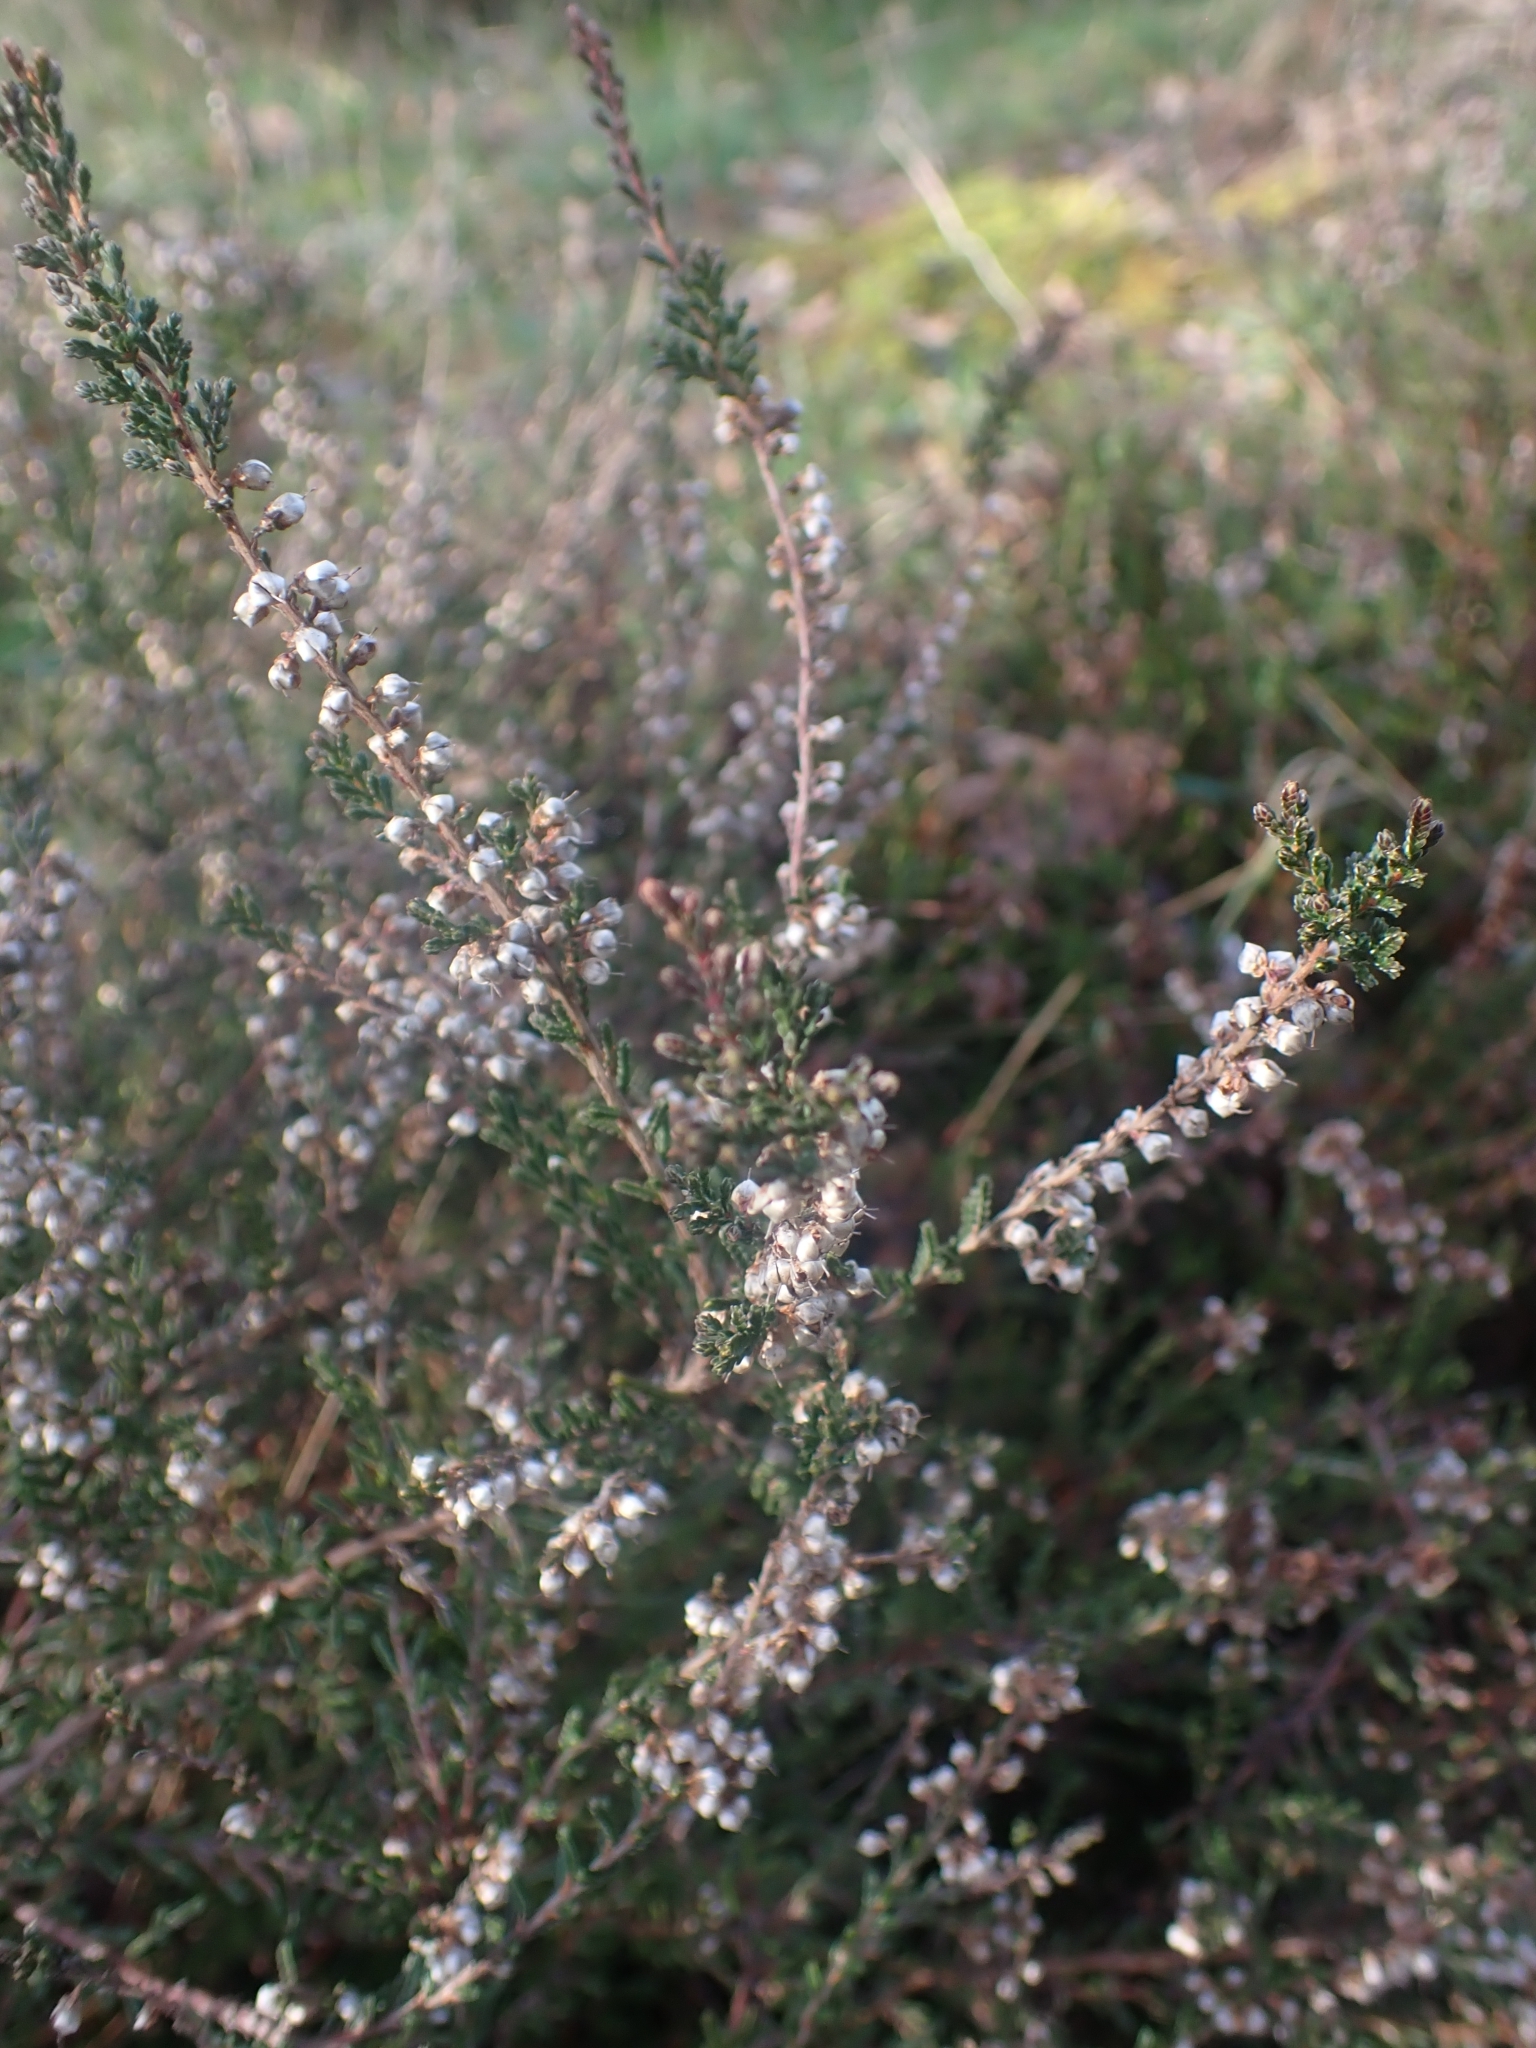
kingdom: Plantae
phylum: Tracheophyta
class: Magnoliopsida
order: Ericales
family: Ericaceae
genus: Calluna
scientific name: Calluna vulgaris
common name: Heather
